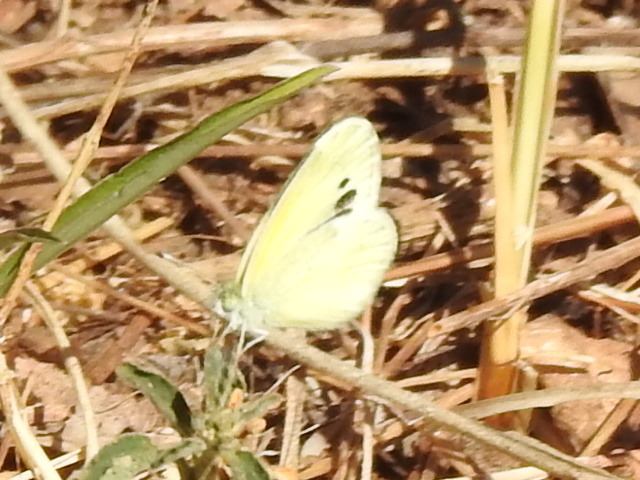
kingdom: Animalia
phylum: Arthropoda
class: Insecta
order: Lepidoptera
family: Pieridae
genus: Nathalis
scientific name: Nathalis iole
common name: Dainty sulphur
